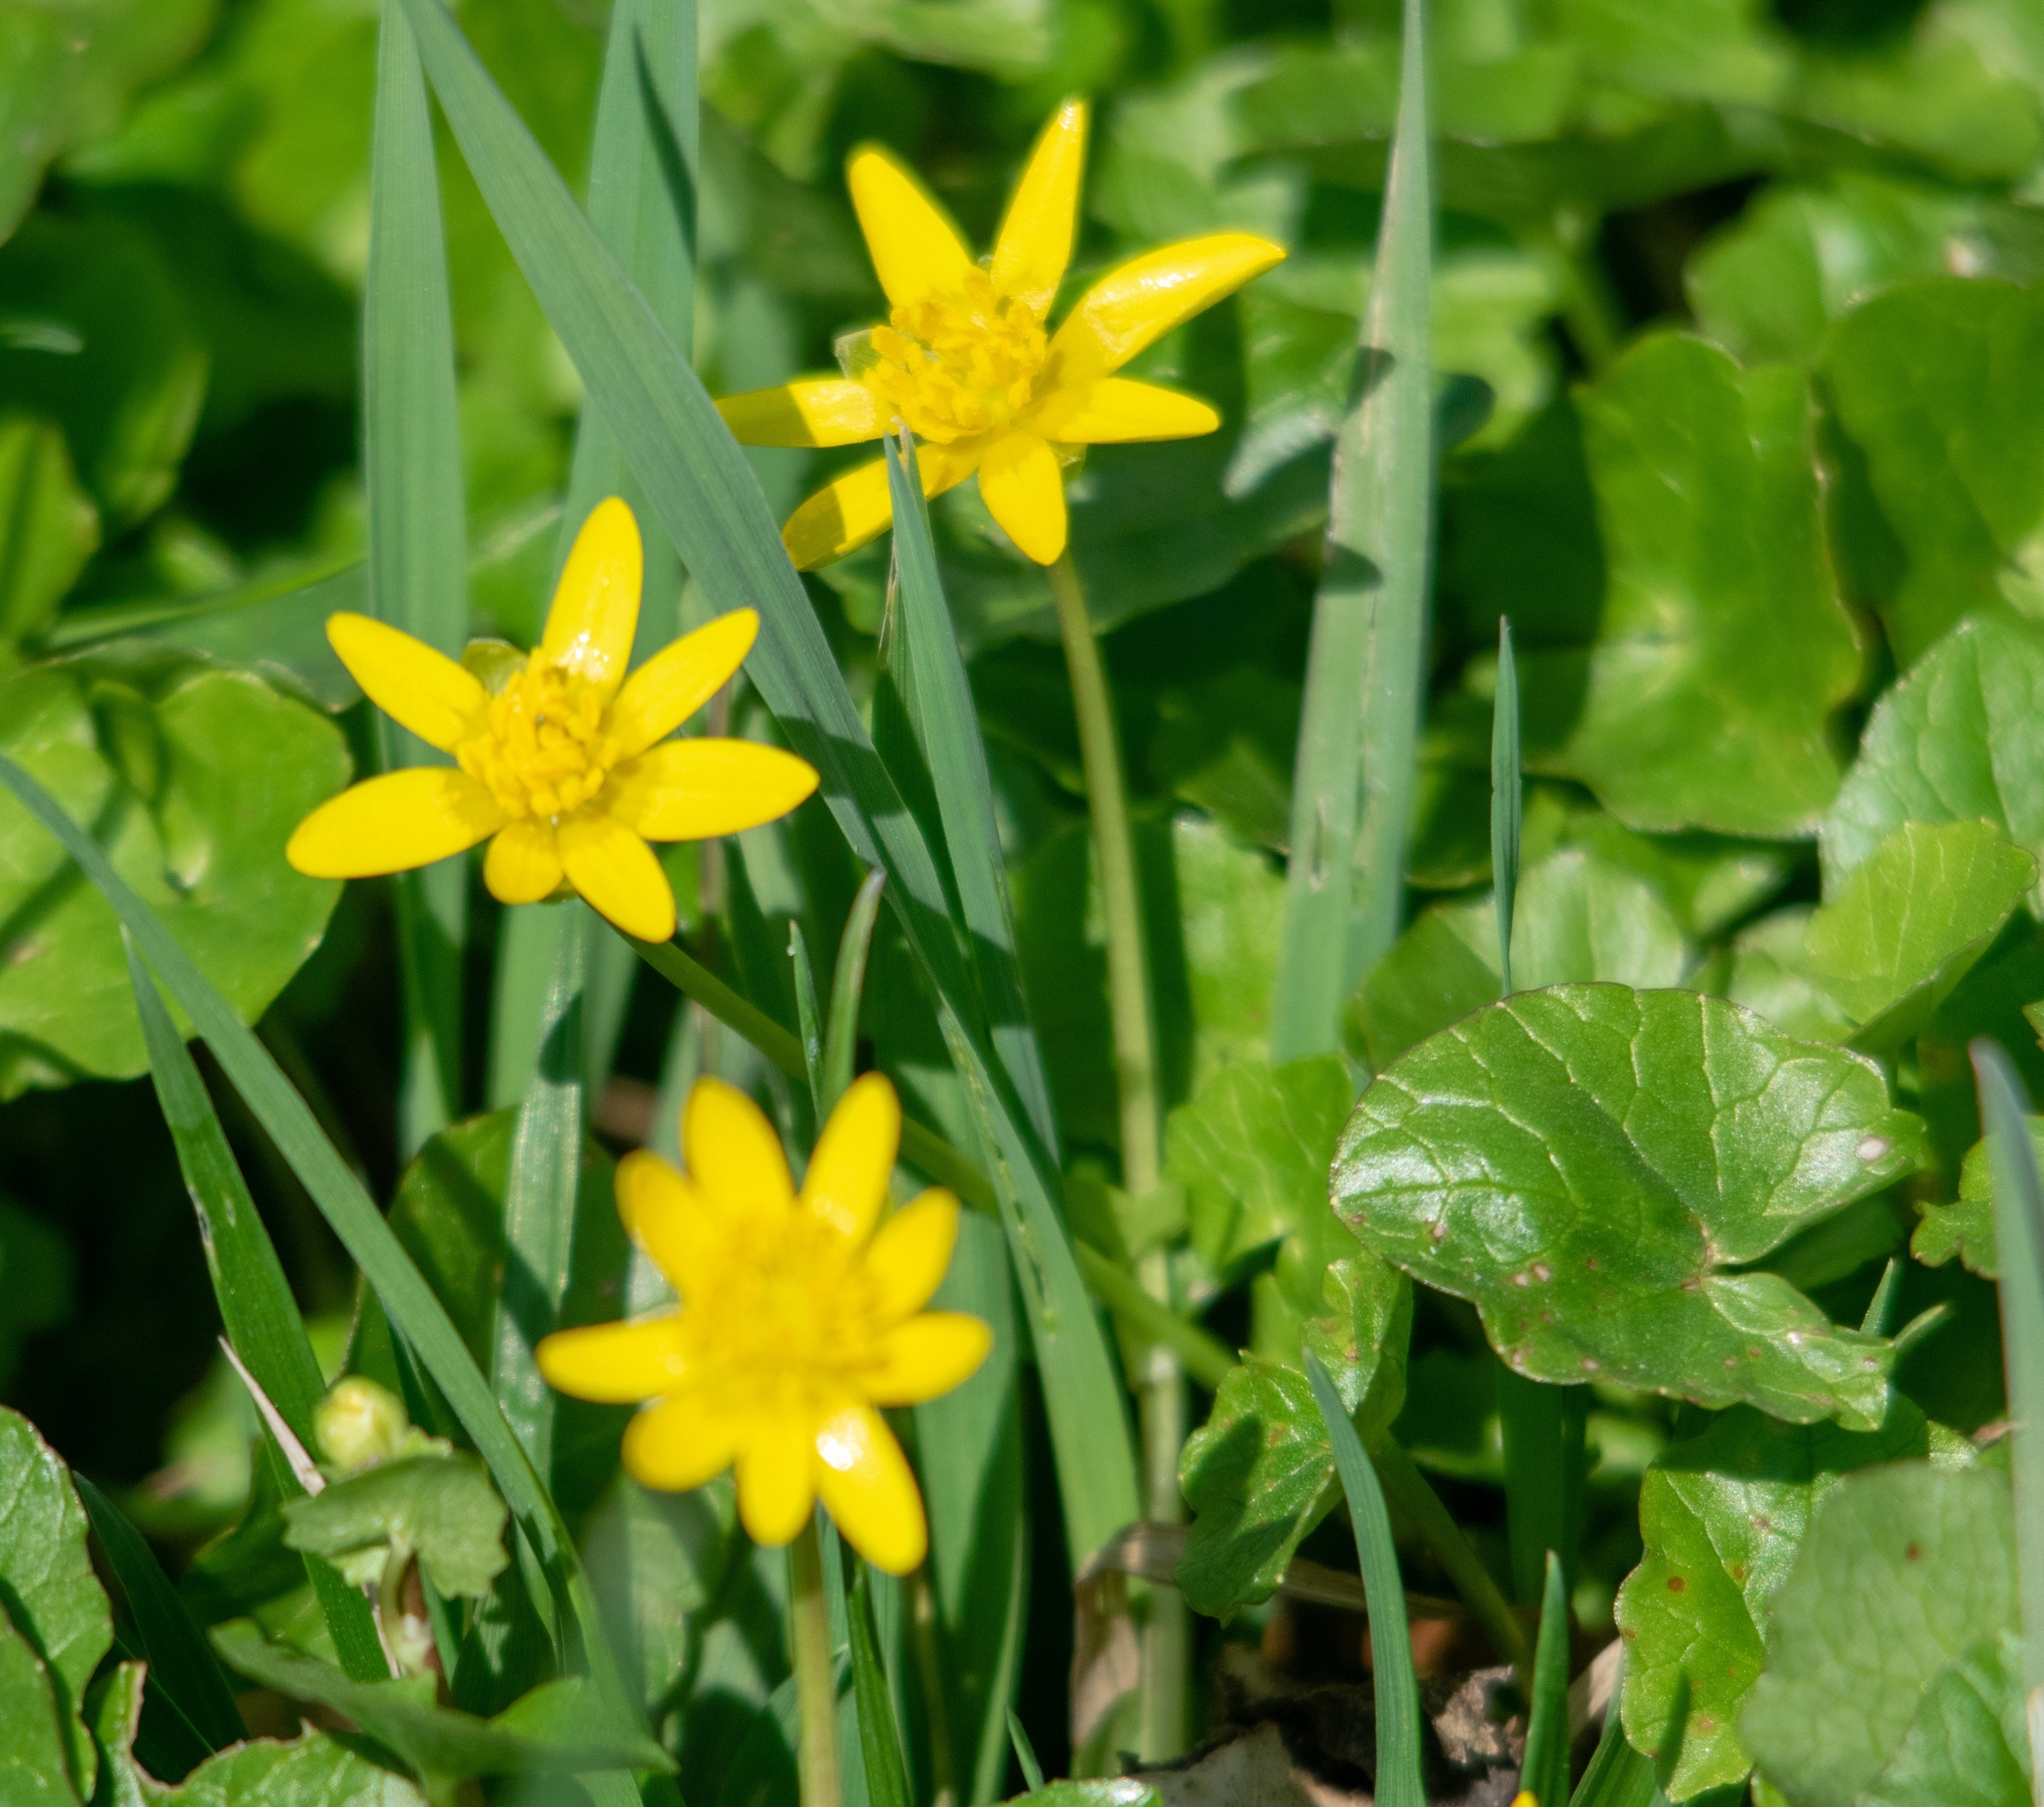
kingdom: Plantae
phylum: Tracheophyta
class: Magnoliopsida
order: Ranunculales
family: Ranunculaceae
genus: Ficaria
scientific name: Ficaria verna
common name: Lesser celandine
